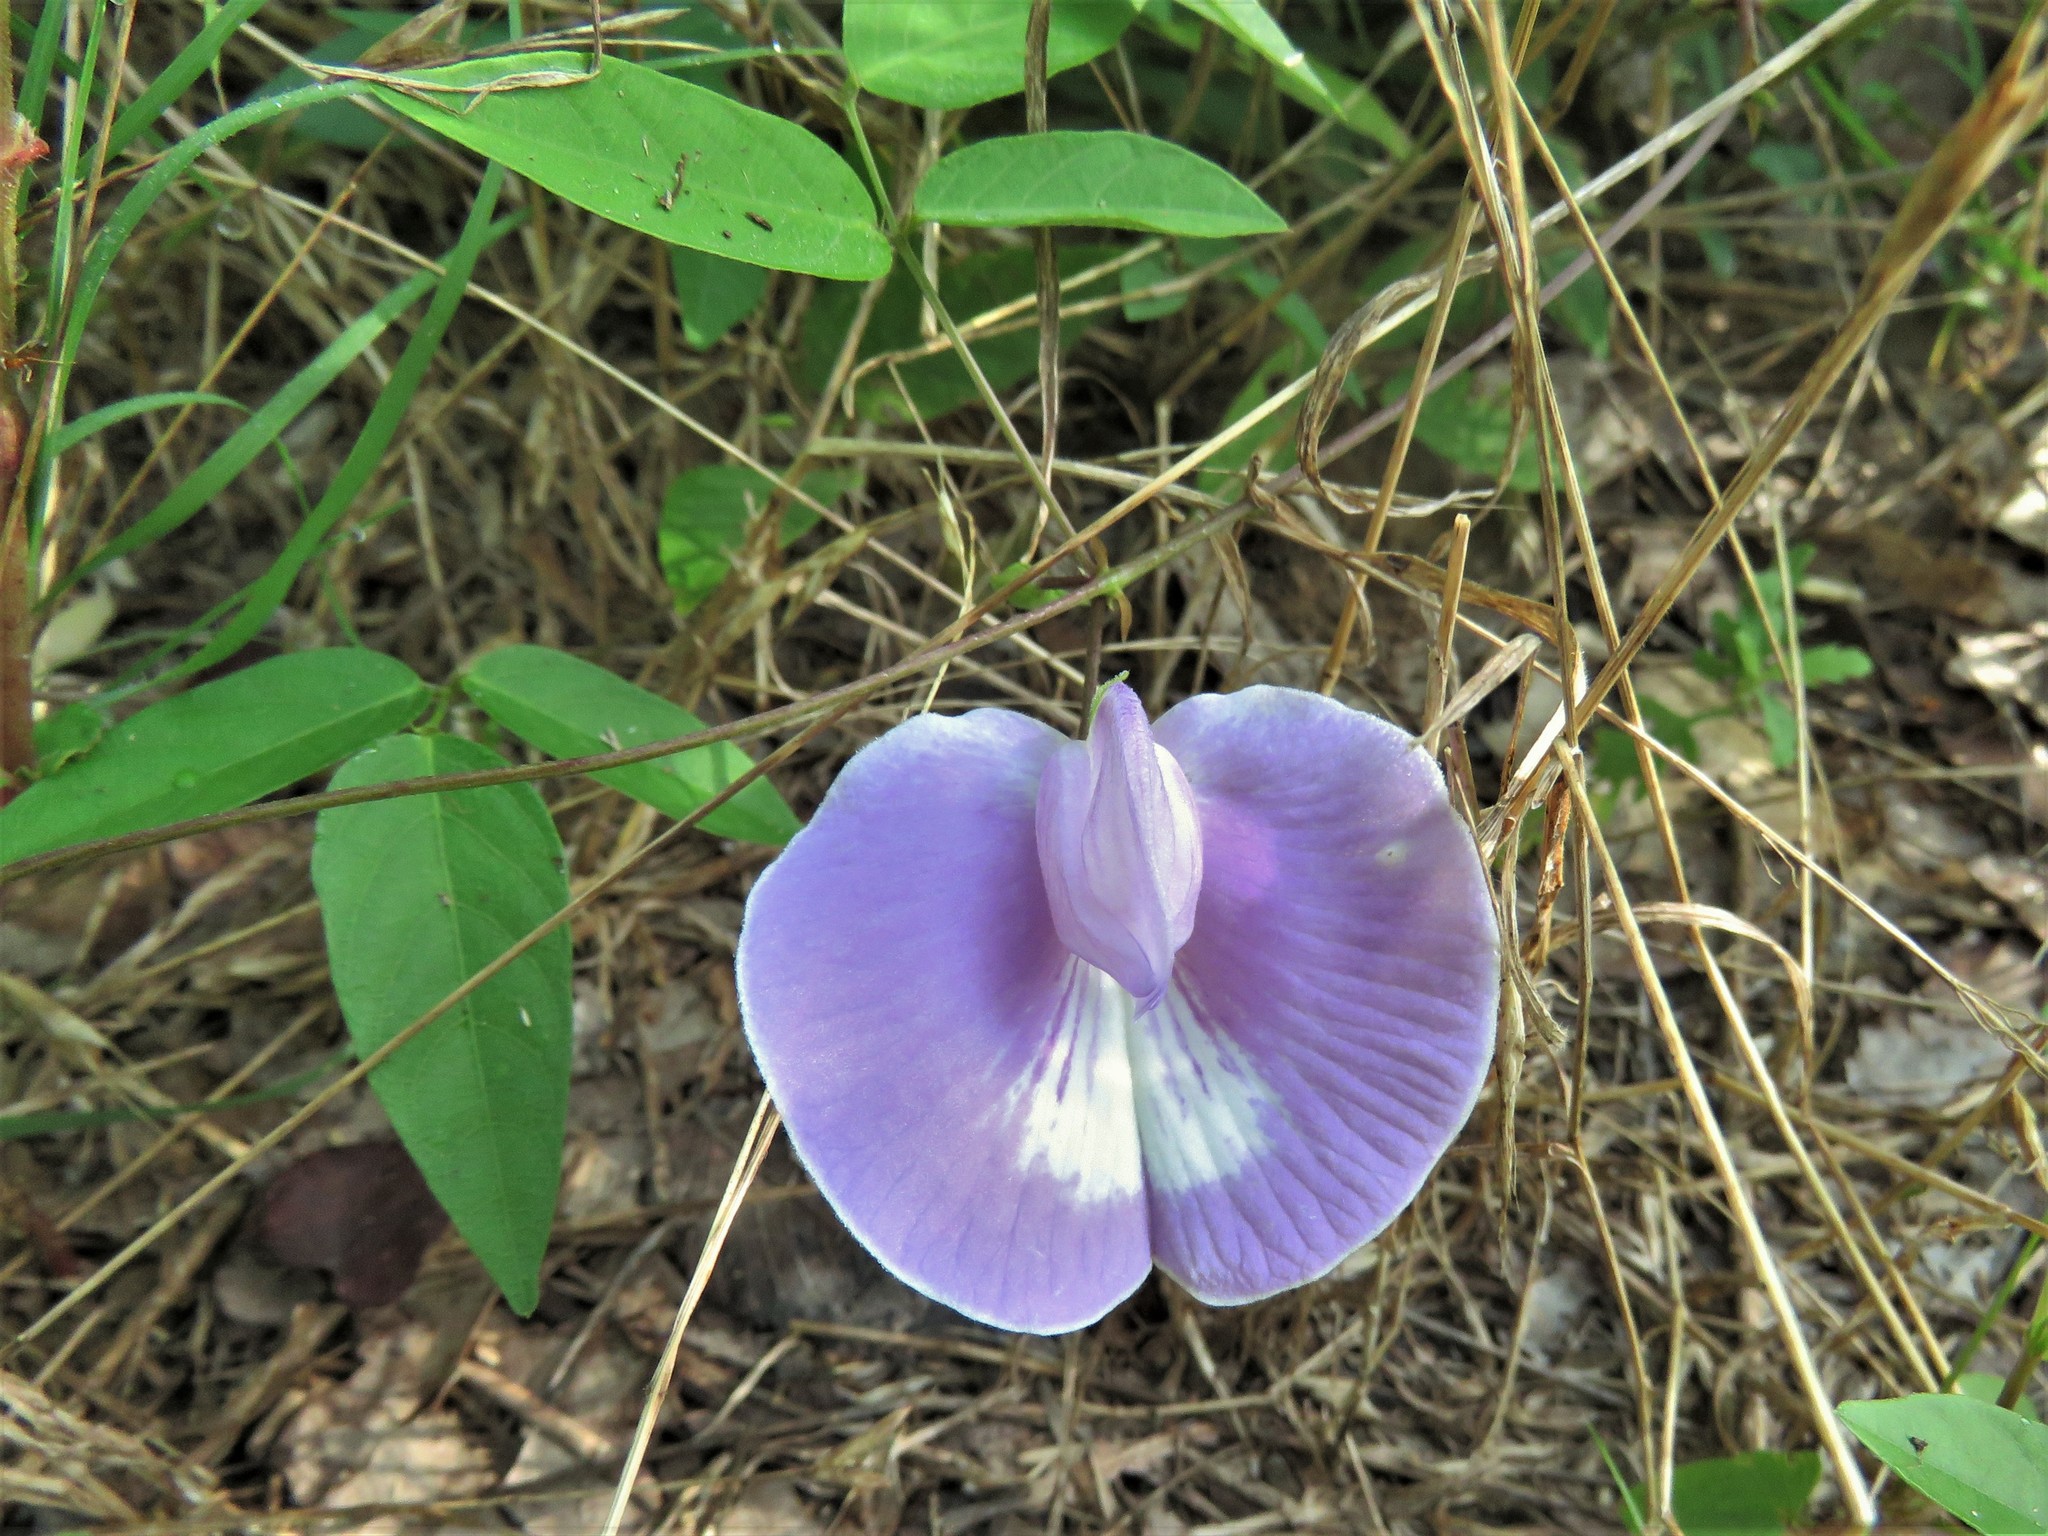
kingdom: Plantae
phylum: Tracheophyta
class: Magnoliopsida
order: Fabales
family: Fabaceae
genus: Centrosema
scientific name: Centrosema virginianum
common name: Butterfly-pea
